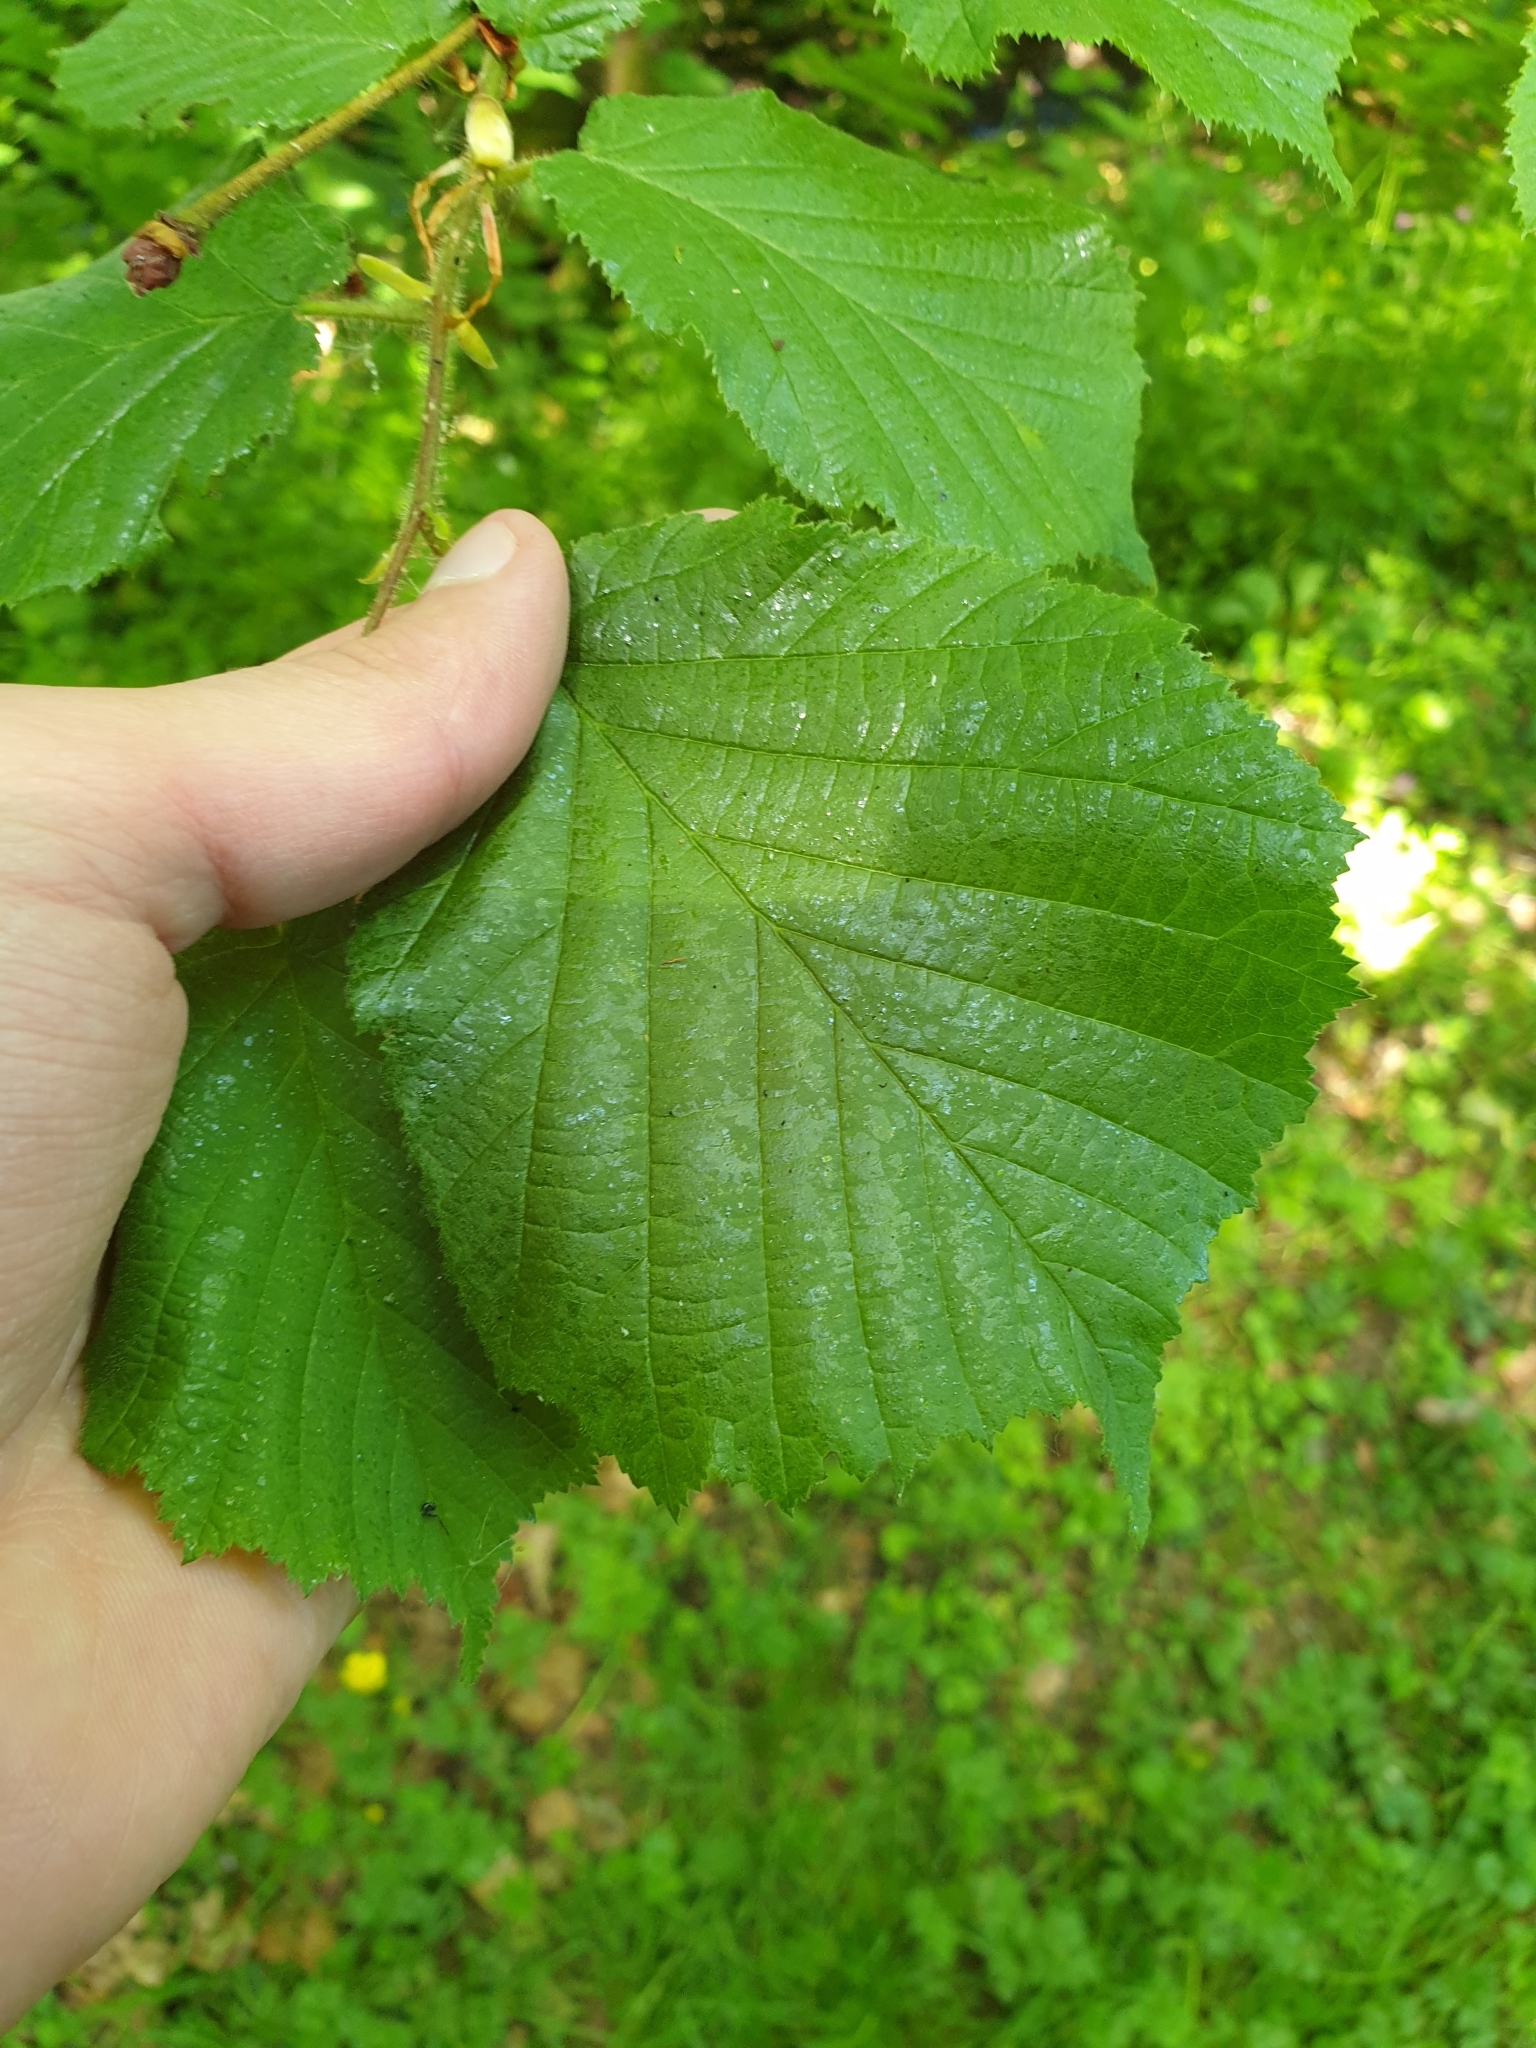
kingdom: Plantae
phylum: Tracheophyta
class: Magnoliopsida
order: Fagales
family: Betulaceae
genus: Corylus
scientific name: Corylus avellana
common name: European hazel
